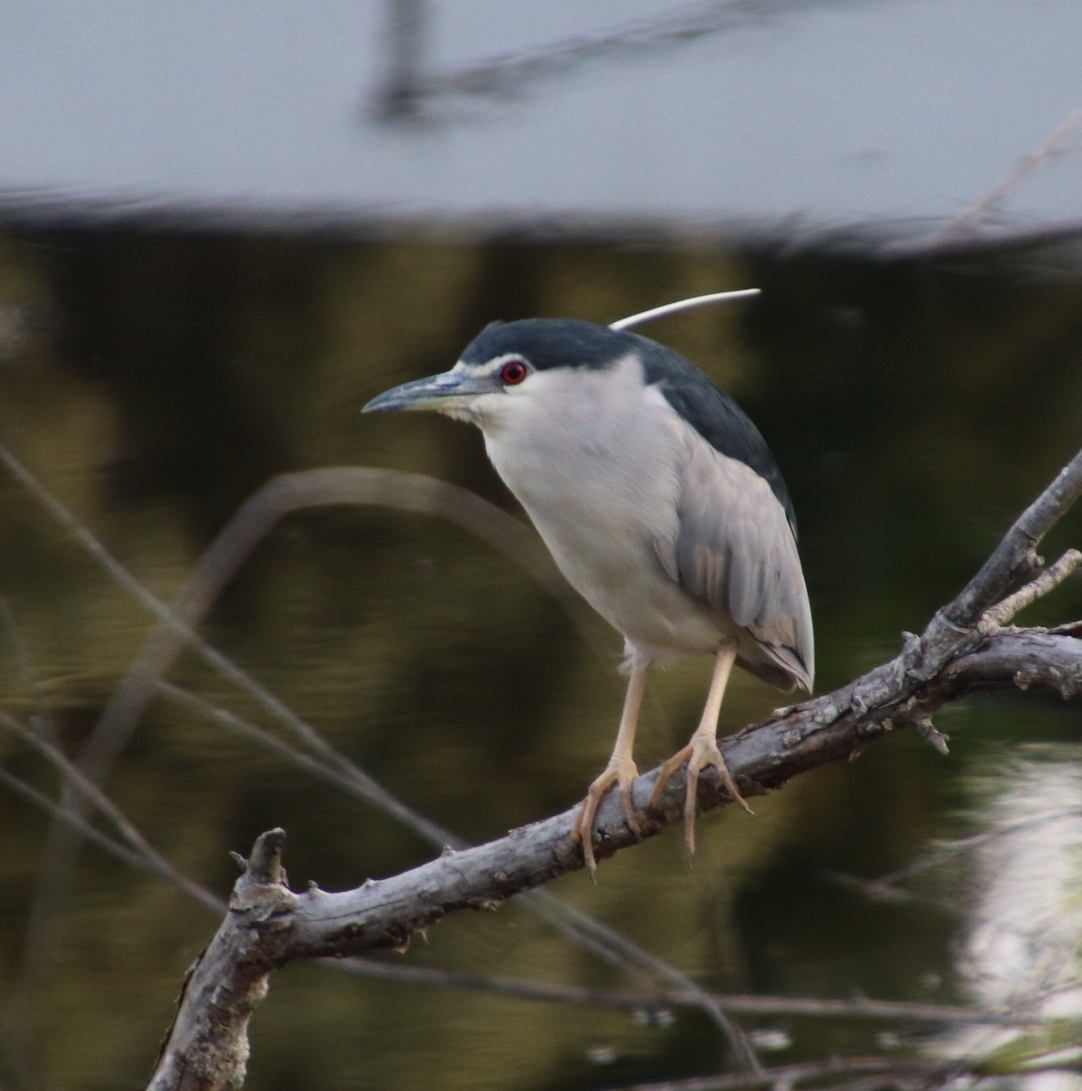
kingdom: Animalia
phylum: Chordata
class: Aves
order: Pelecaniformes
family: Ardeidae
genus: Nycticorax
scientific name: Nycticorax nycticorax
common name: Black-crowned night heron
